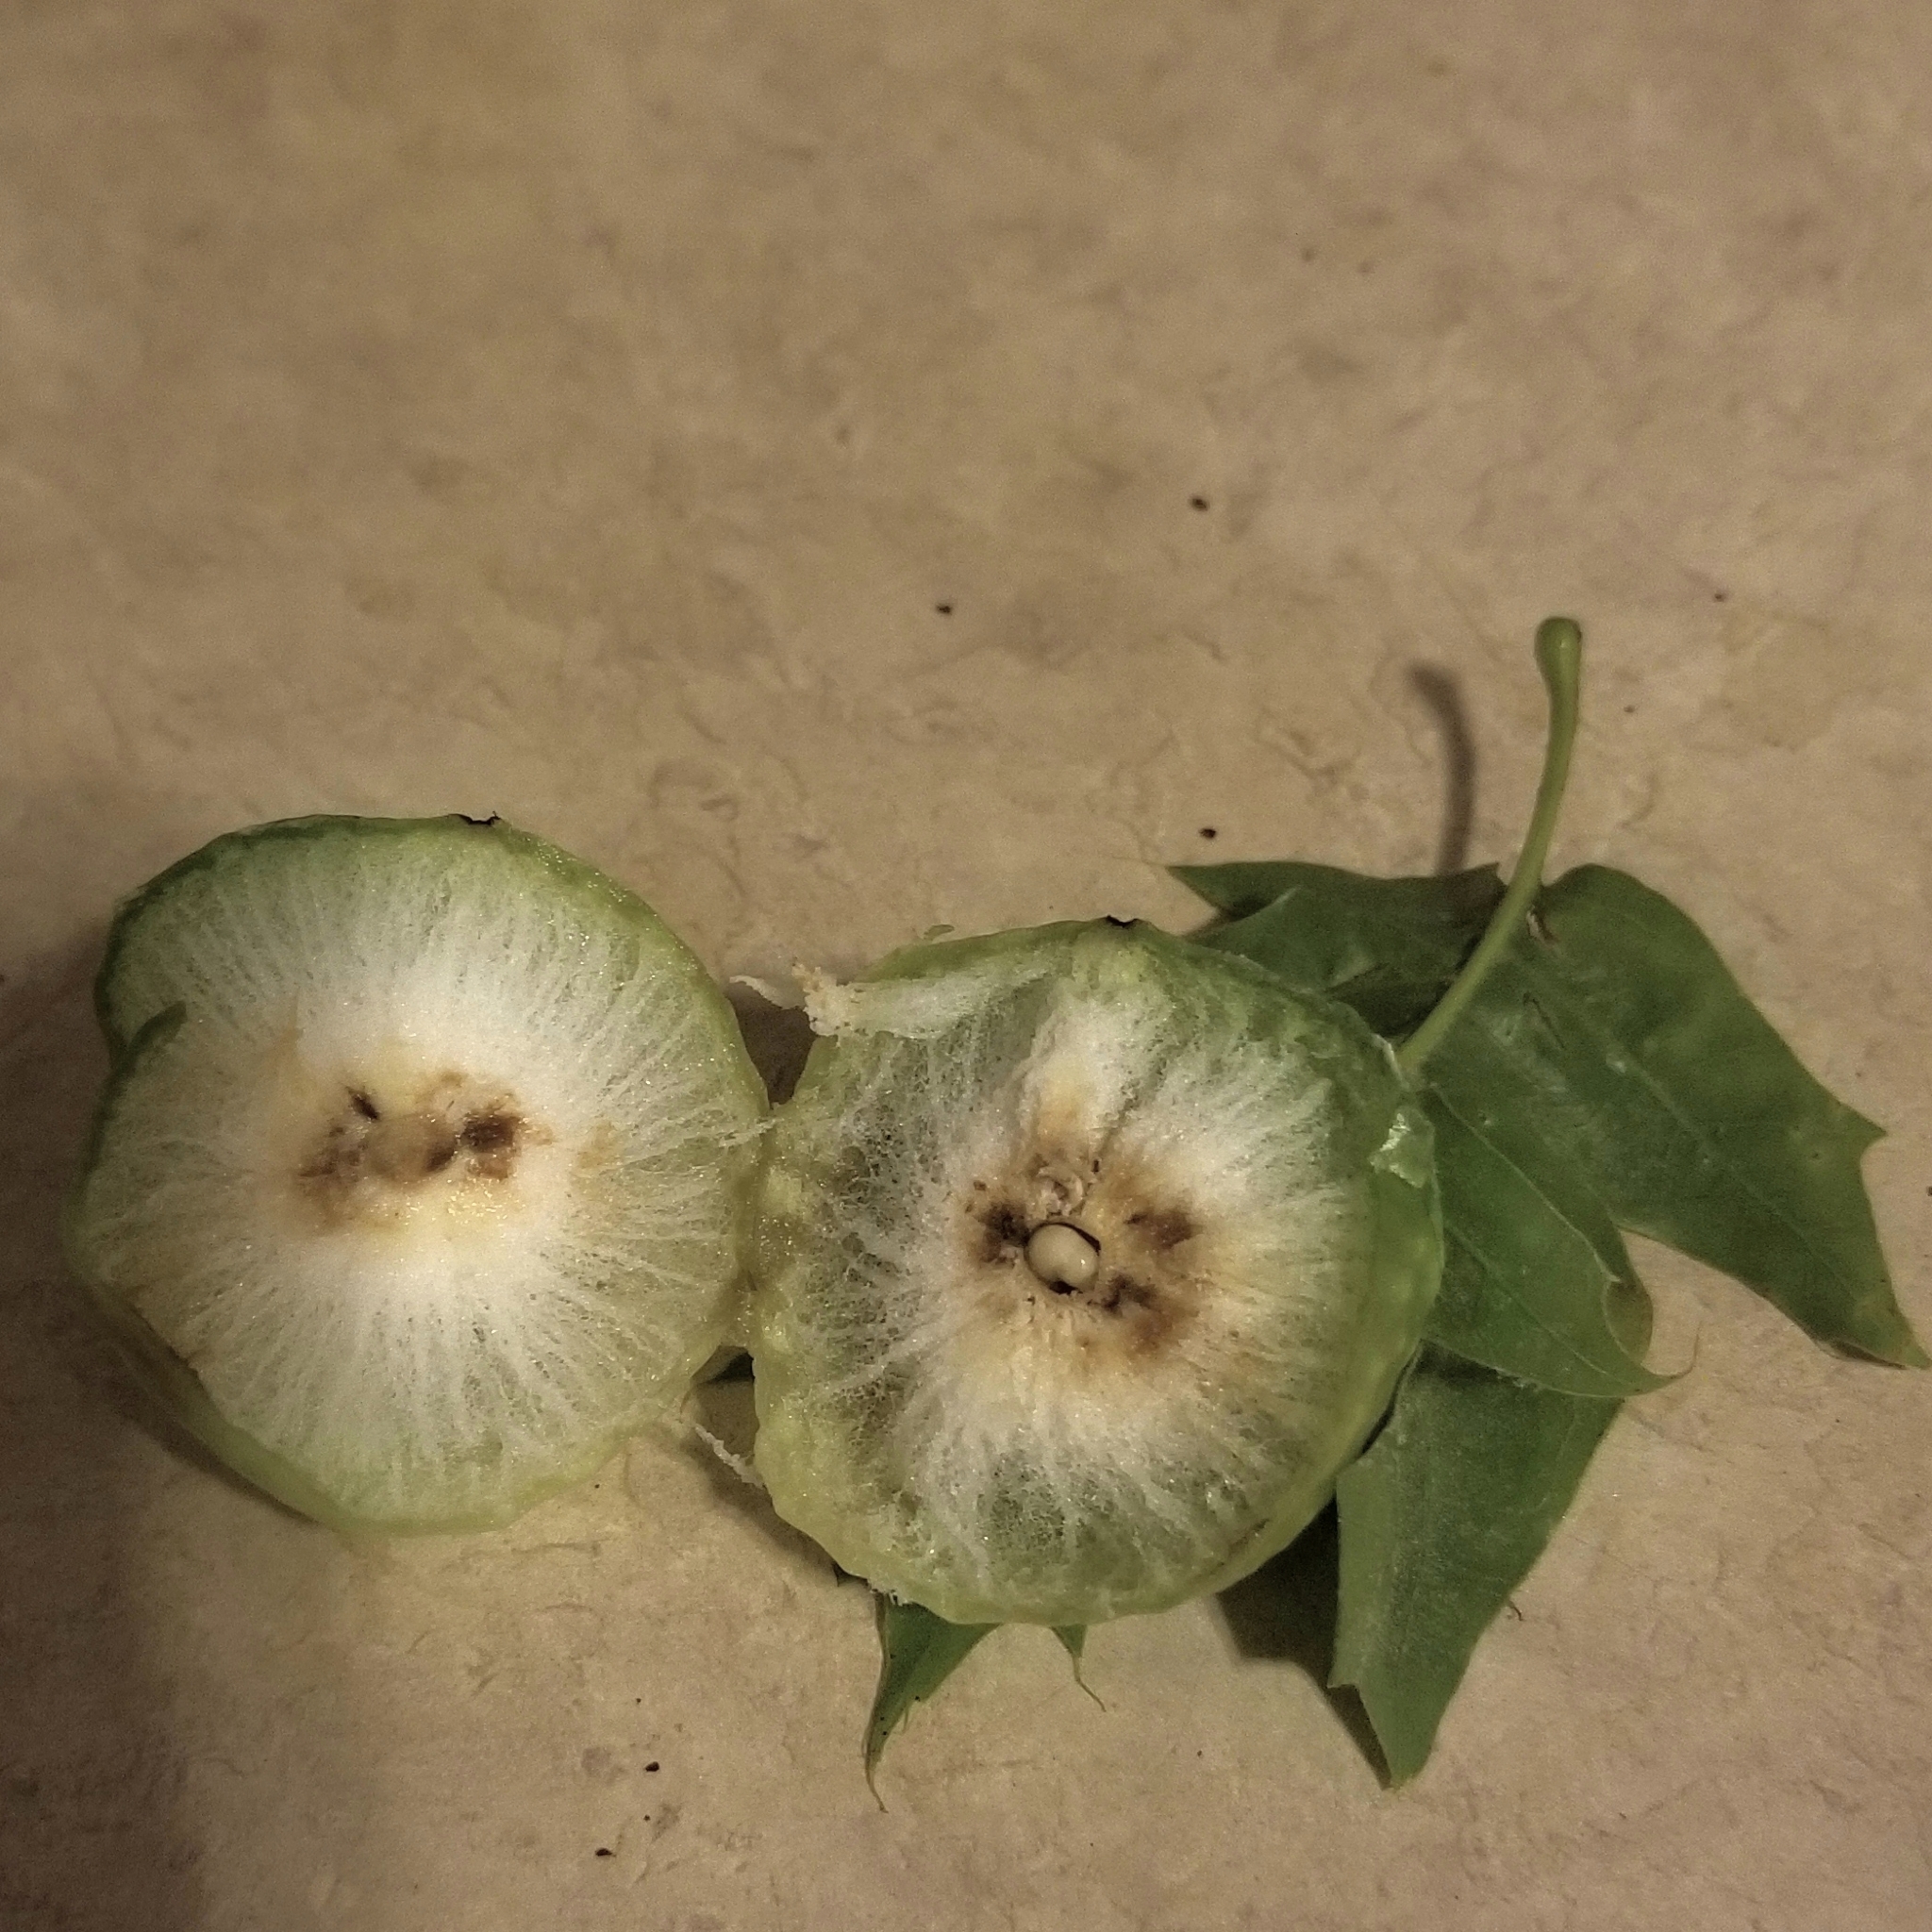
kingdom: Animalia
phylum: Arthropoda
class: Insecta
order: Hymenoptera
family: Cynipidae
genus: Amphibolips
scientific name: Amphibolips
